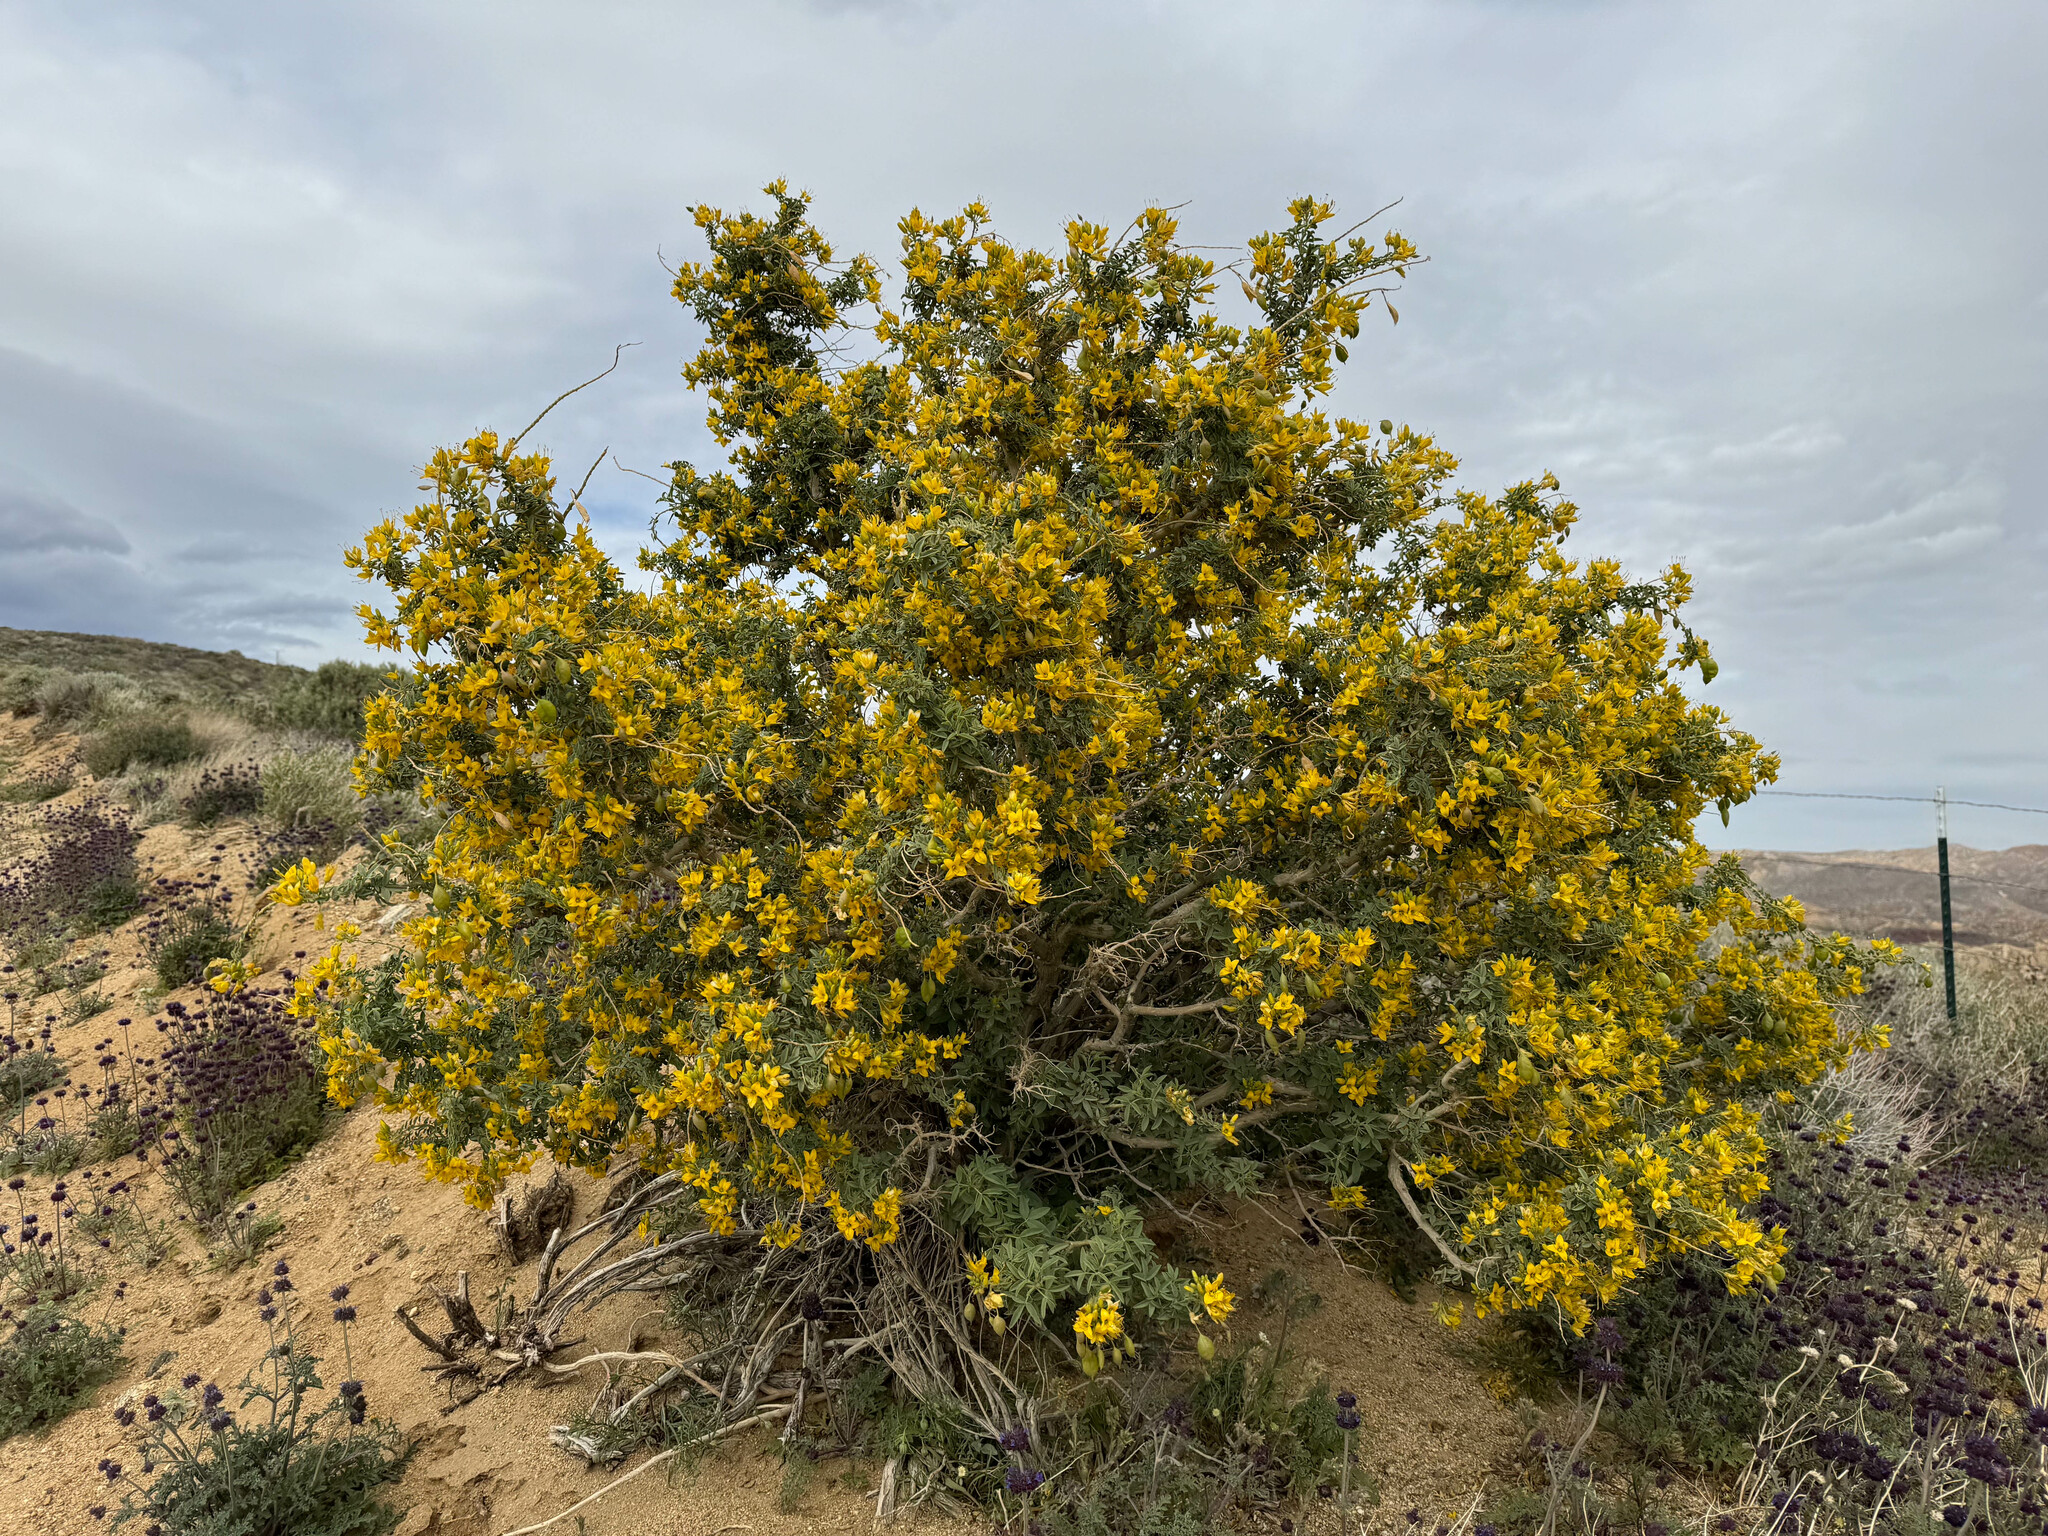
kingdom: Plantae
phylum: Tracheophyta
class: Magnoliopsida
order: Brassicales
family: Cleomaceae
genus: Cleomella
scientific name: Cleomella arborea
